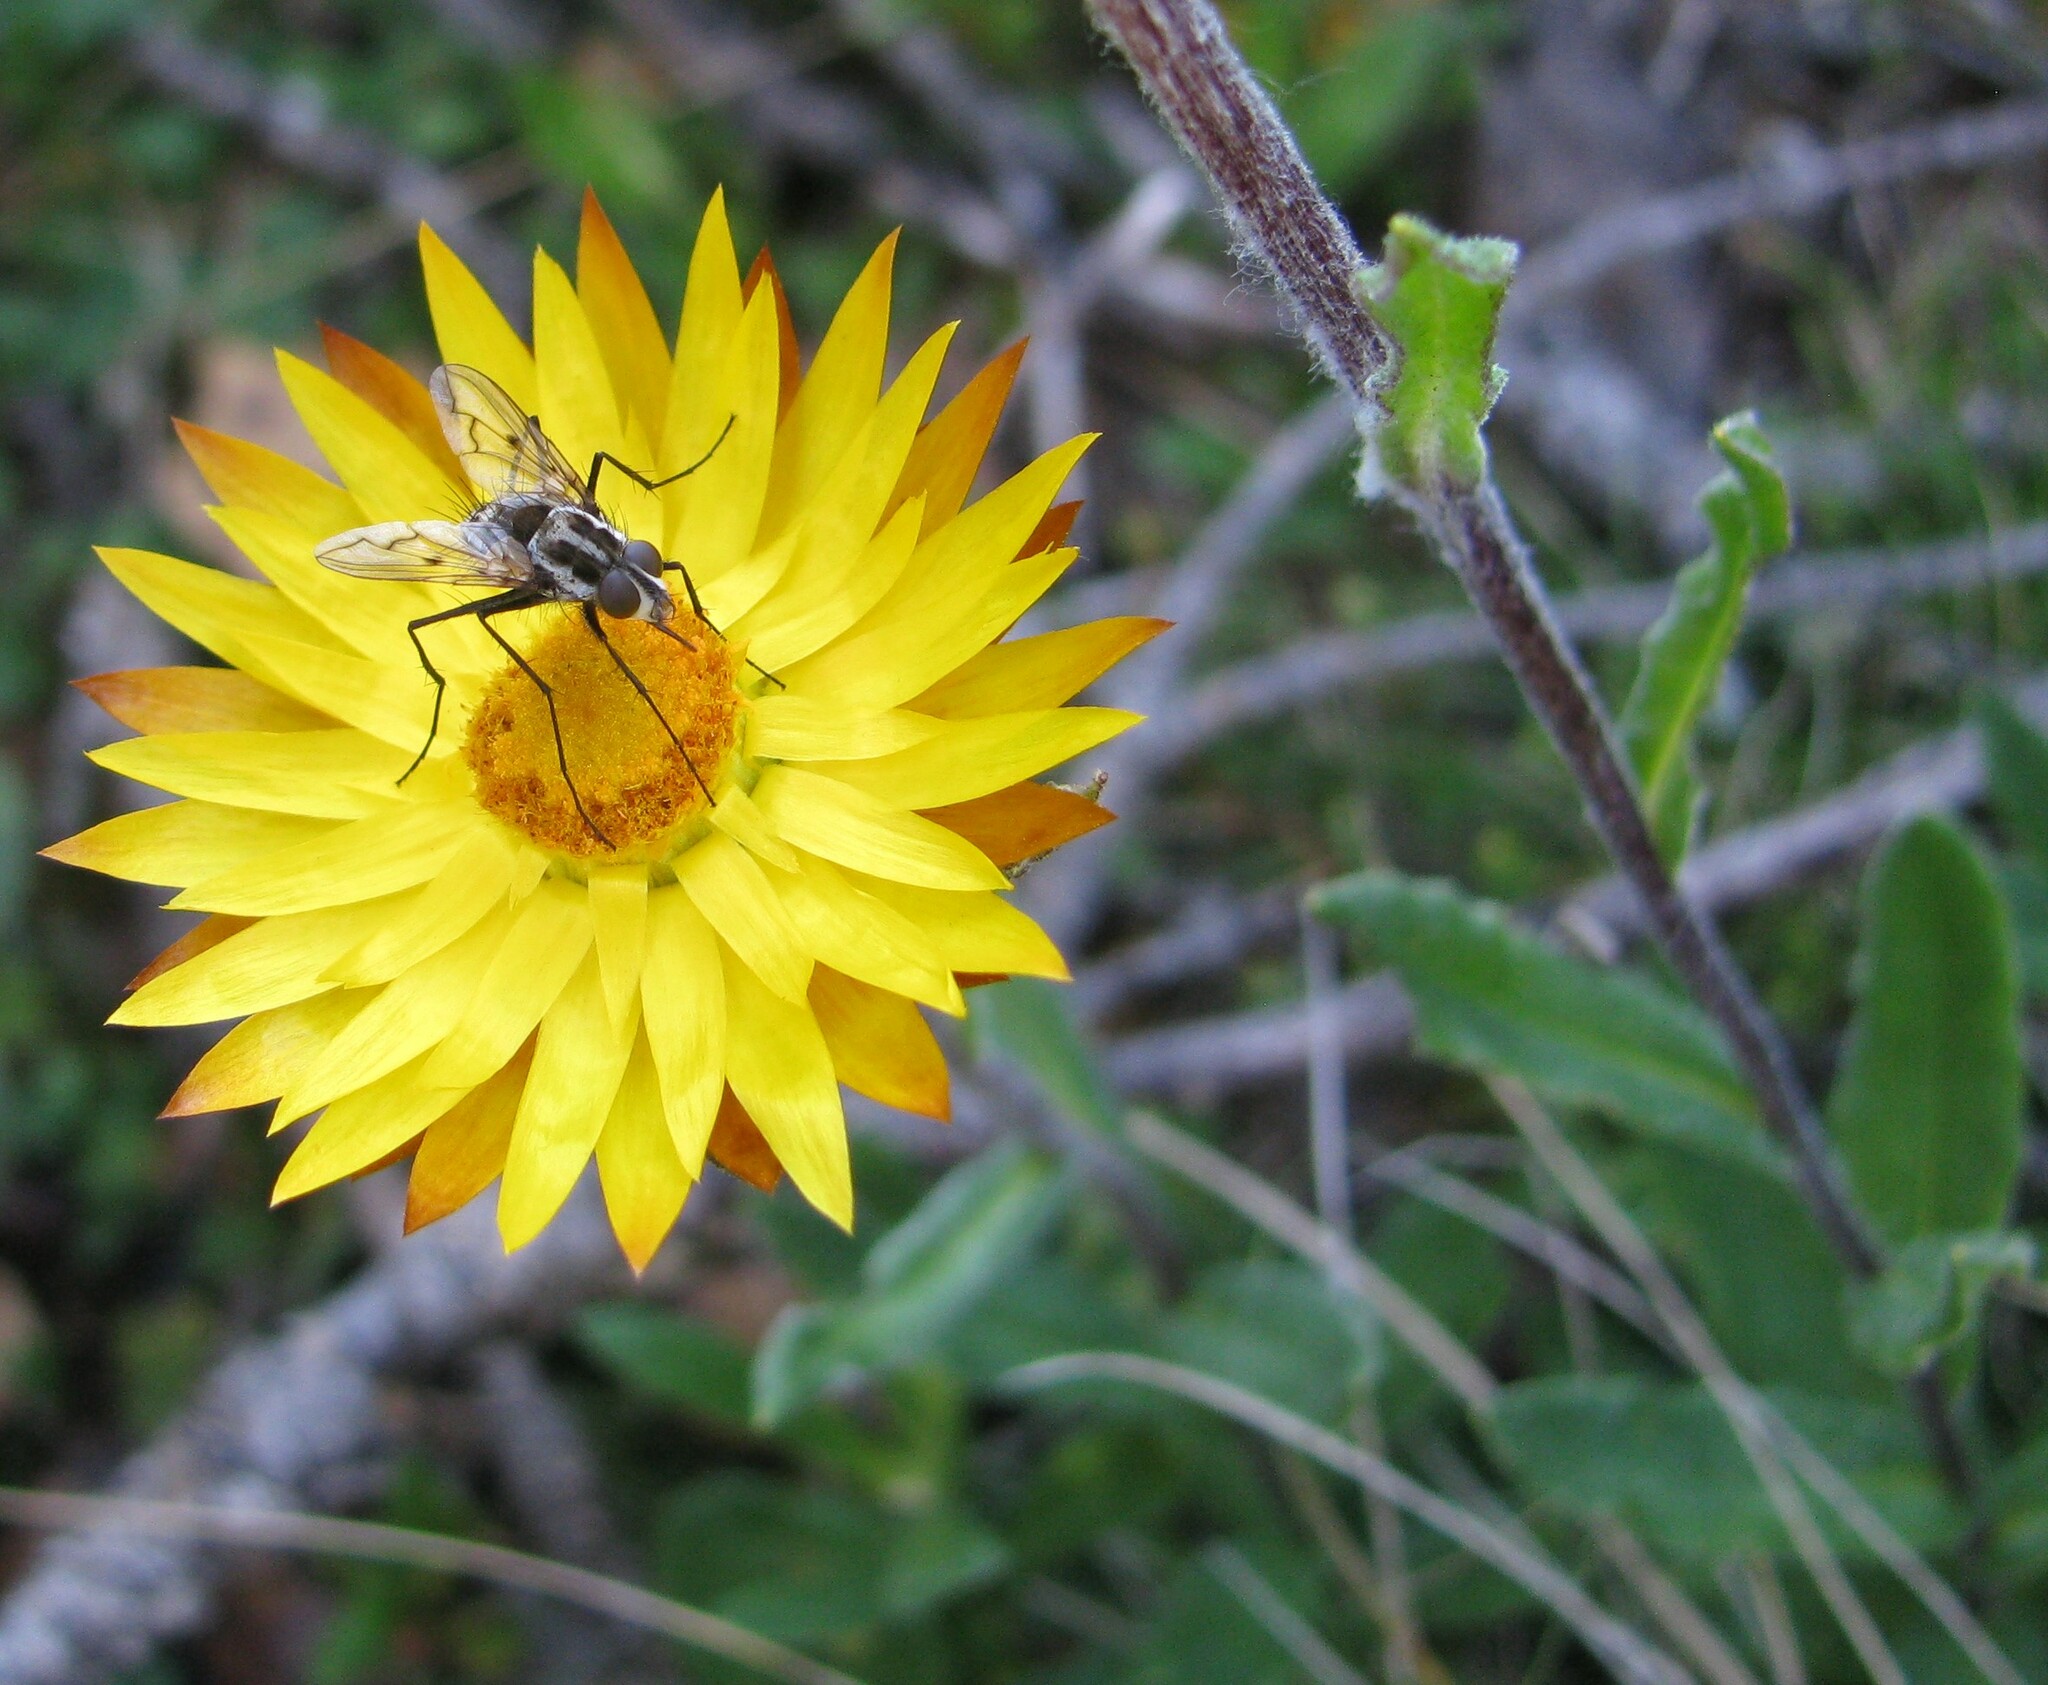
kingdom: Plantae
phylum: Tracheophyta
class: Magnoliopsida
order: Asterales
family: Asteraceae
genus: Xerochrysum
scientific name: Xerochrysum subundulatum
